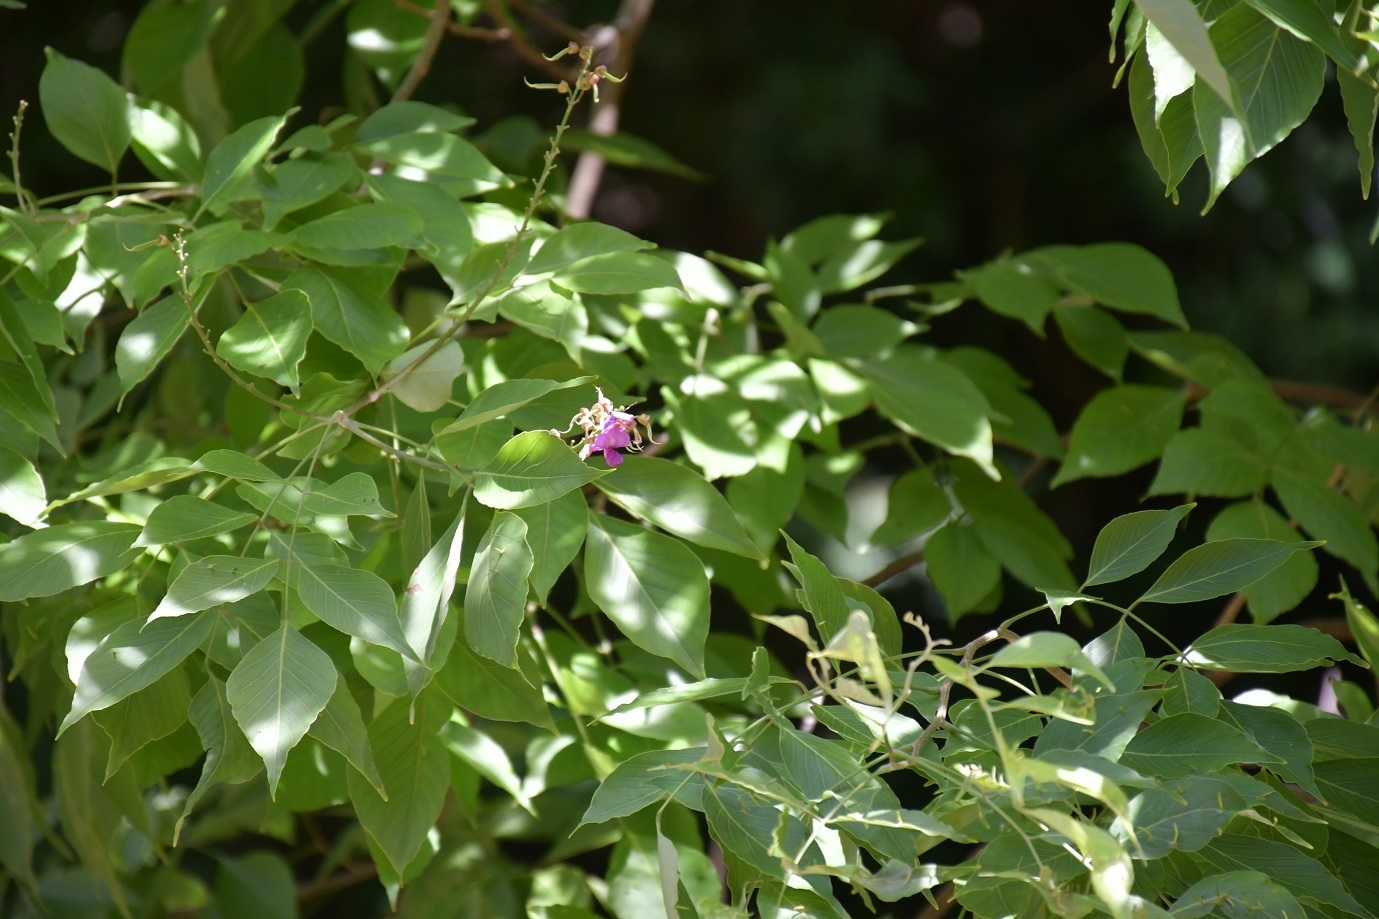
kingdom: Plantae
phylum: Tracheophyta
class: Magnoliopsida
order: Fabales
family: Fabaceae
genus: Lonchocarpus
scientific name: Lonchocarpus minimiflorus
